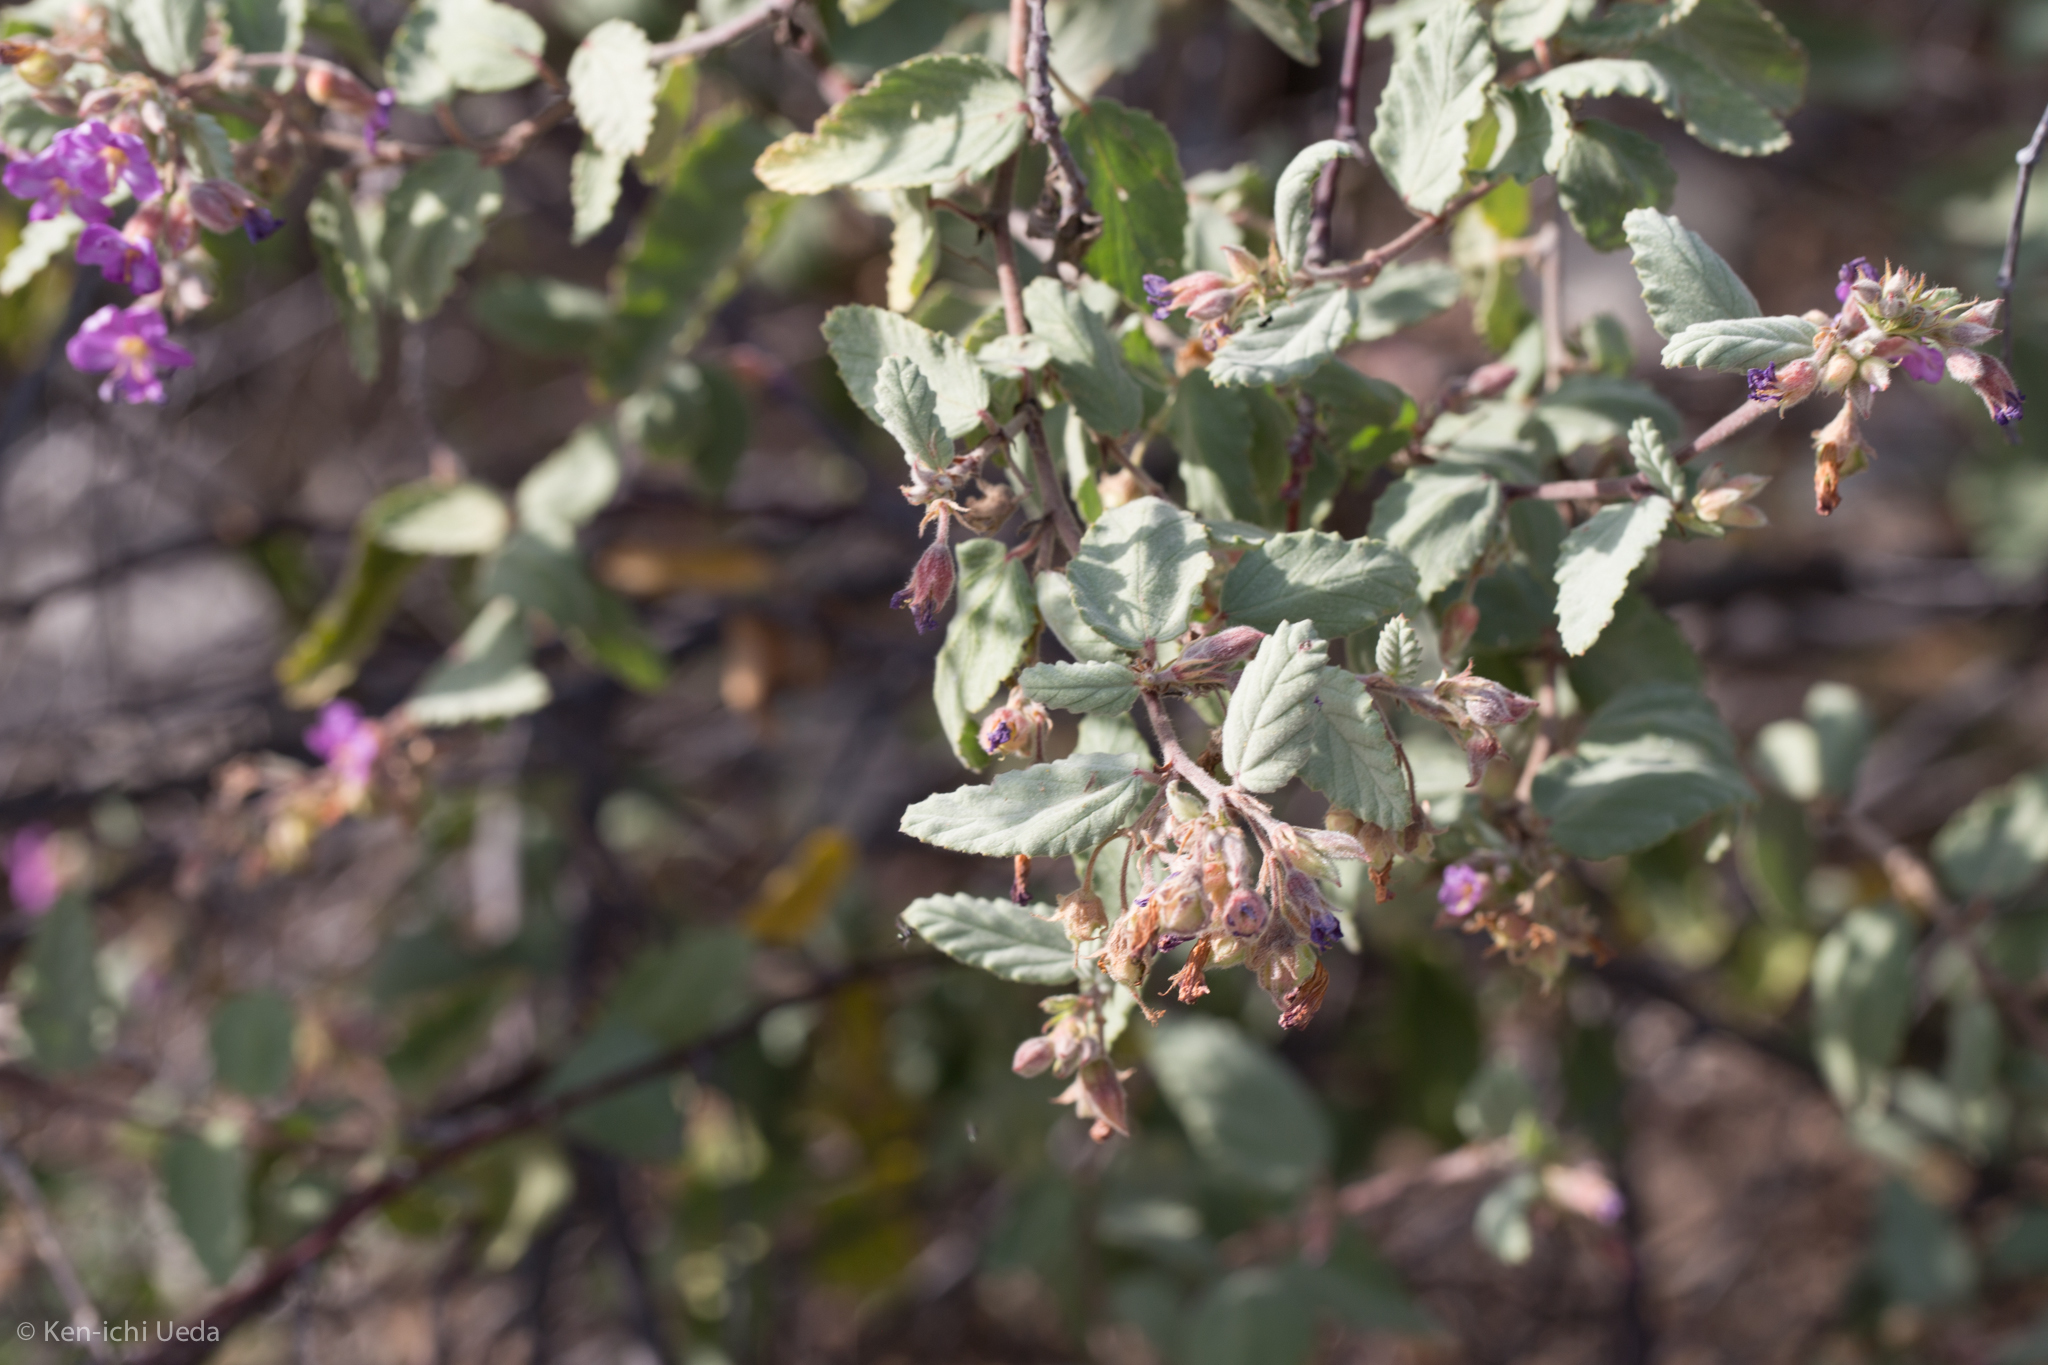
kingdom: Plantae
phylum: Tracheophyta
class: Magnoliopsida
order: Malvales
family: Malvaceae
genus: Melochia
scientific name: Melochia tomentosa
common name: Black torch
